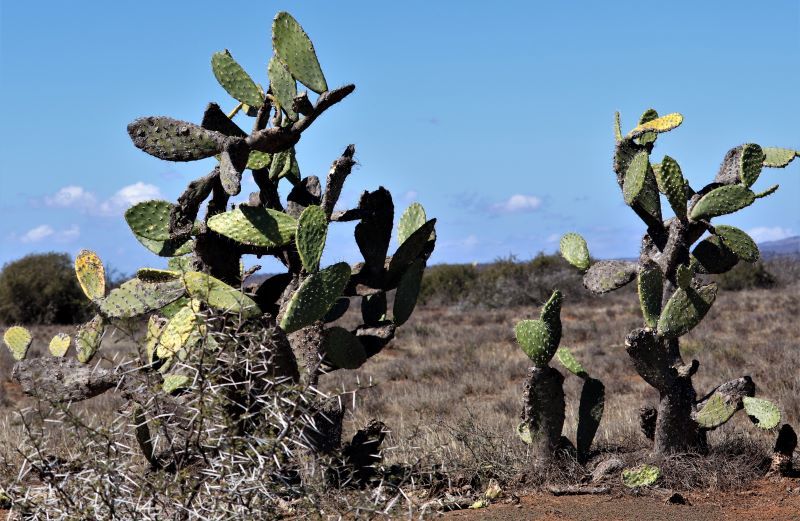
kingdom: Plantae
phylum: Tracheophyta
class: Magnoliopsida
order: Caryophyllales
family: Cactaceae
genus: Opuntia
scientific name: Opuntia ficus-indica
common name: Barbary fig
